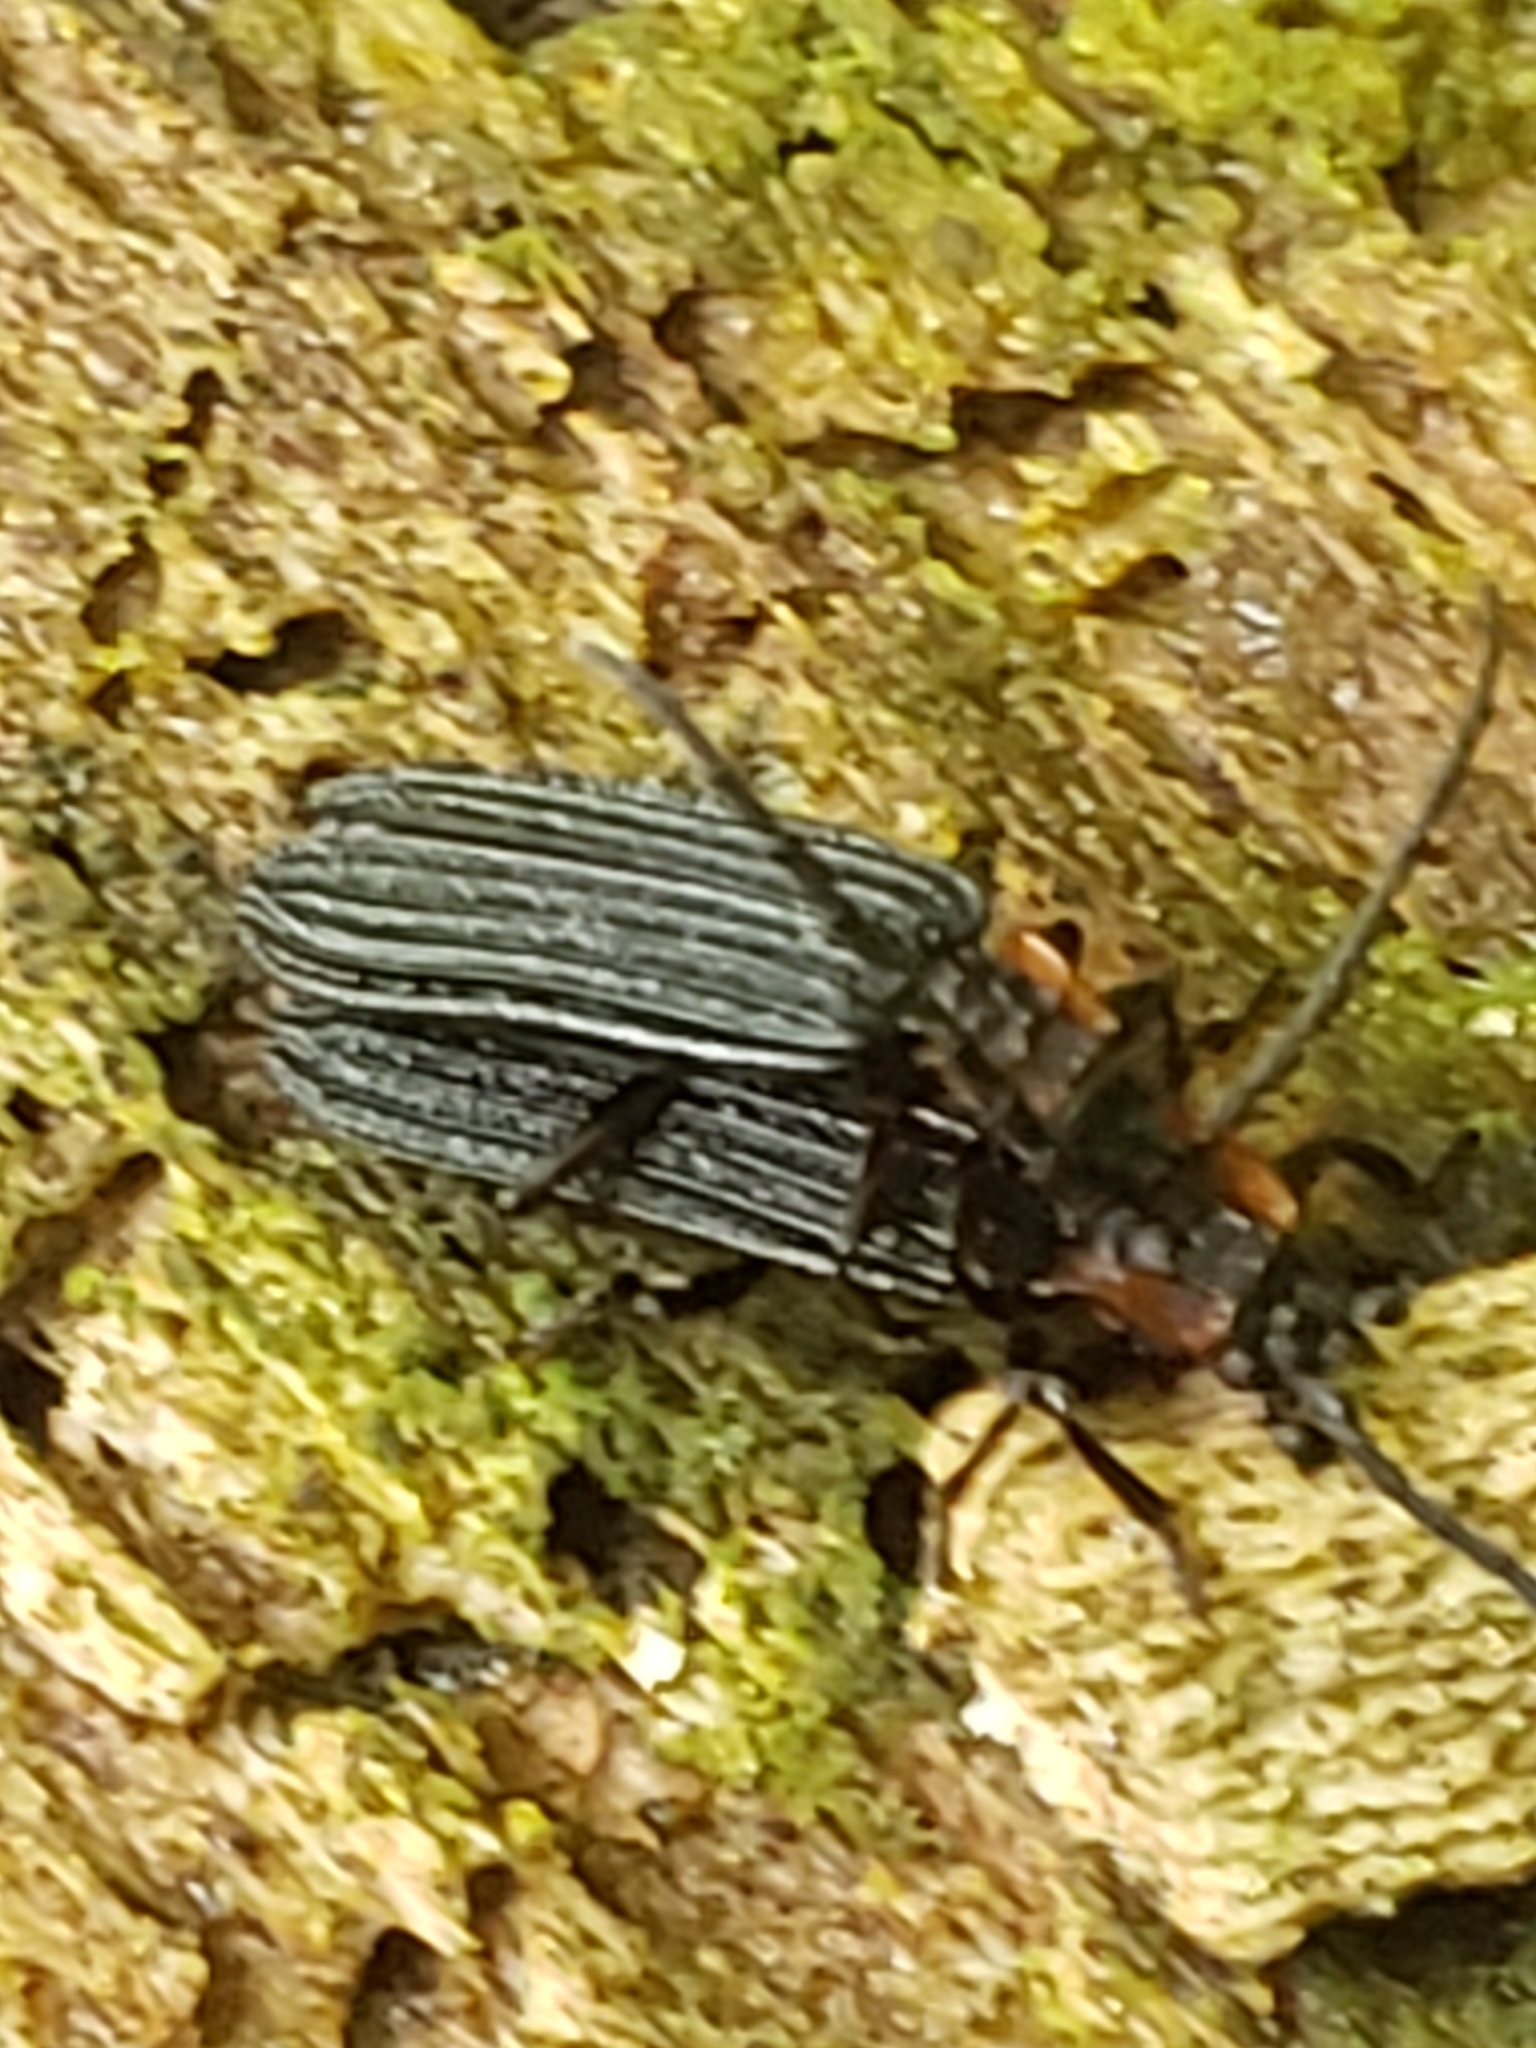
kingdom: Animalia
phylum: Arthropoda
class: Insecta
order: Coleoptera
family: Lycidae
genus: Erotides
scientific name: Erotides sculptilis
